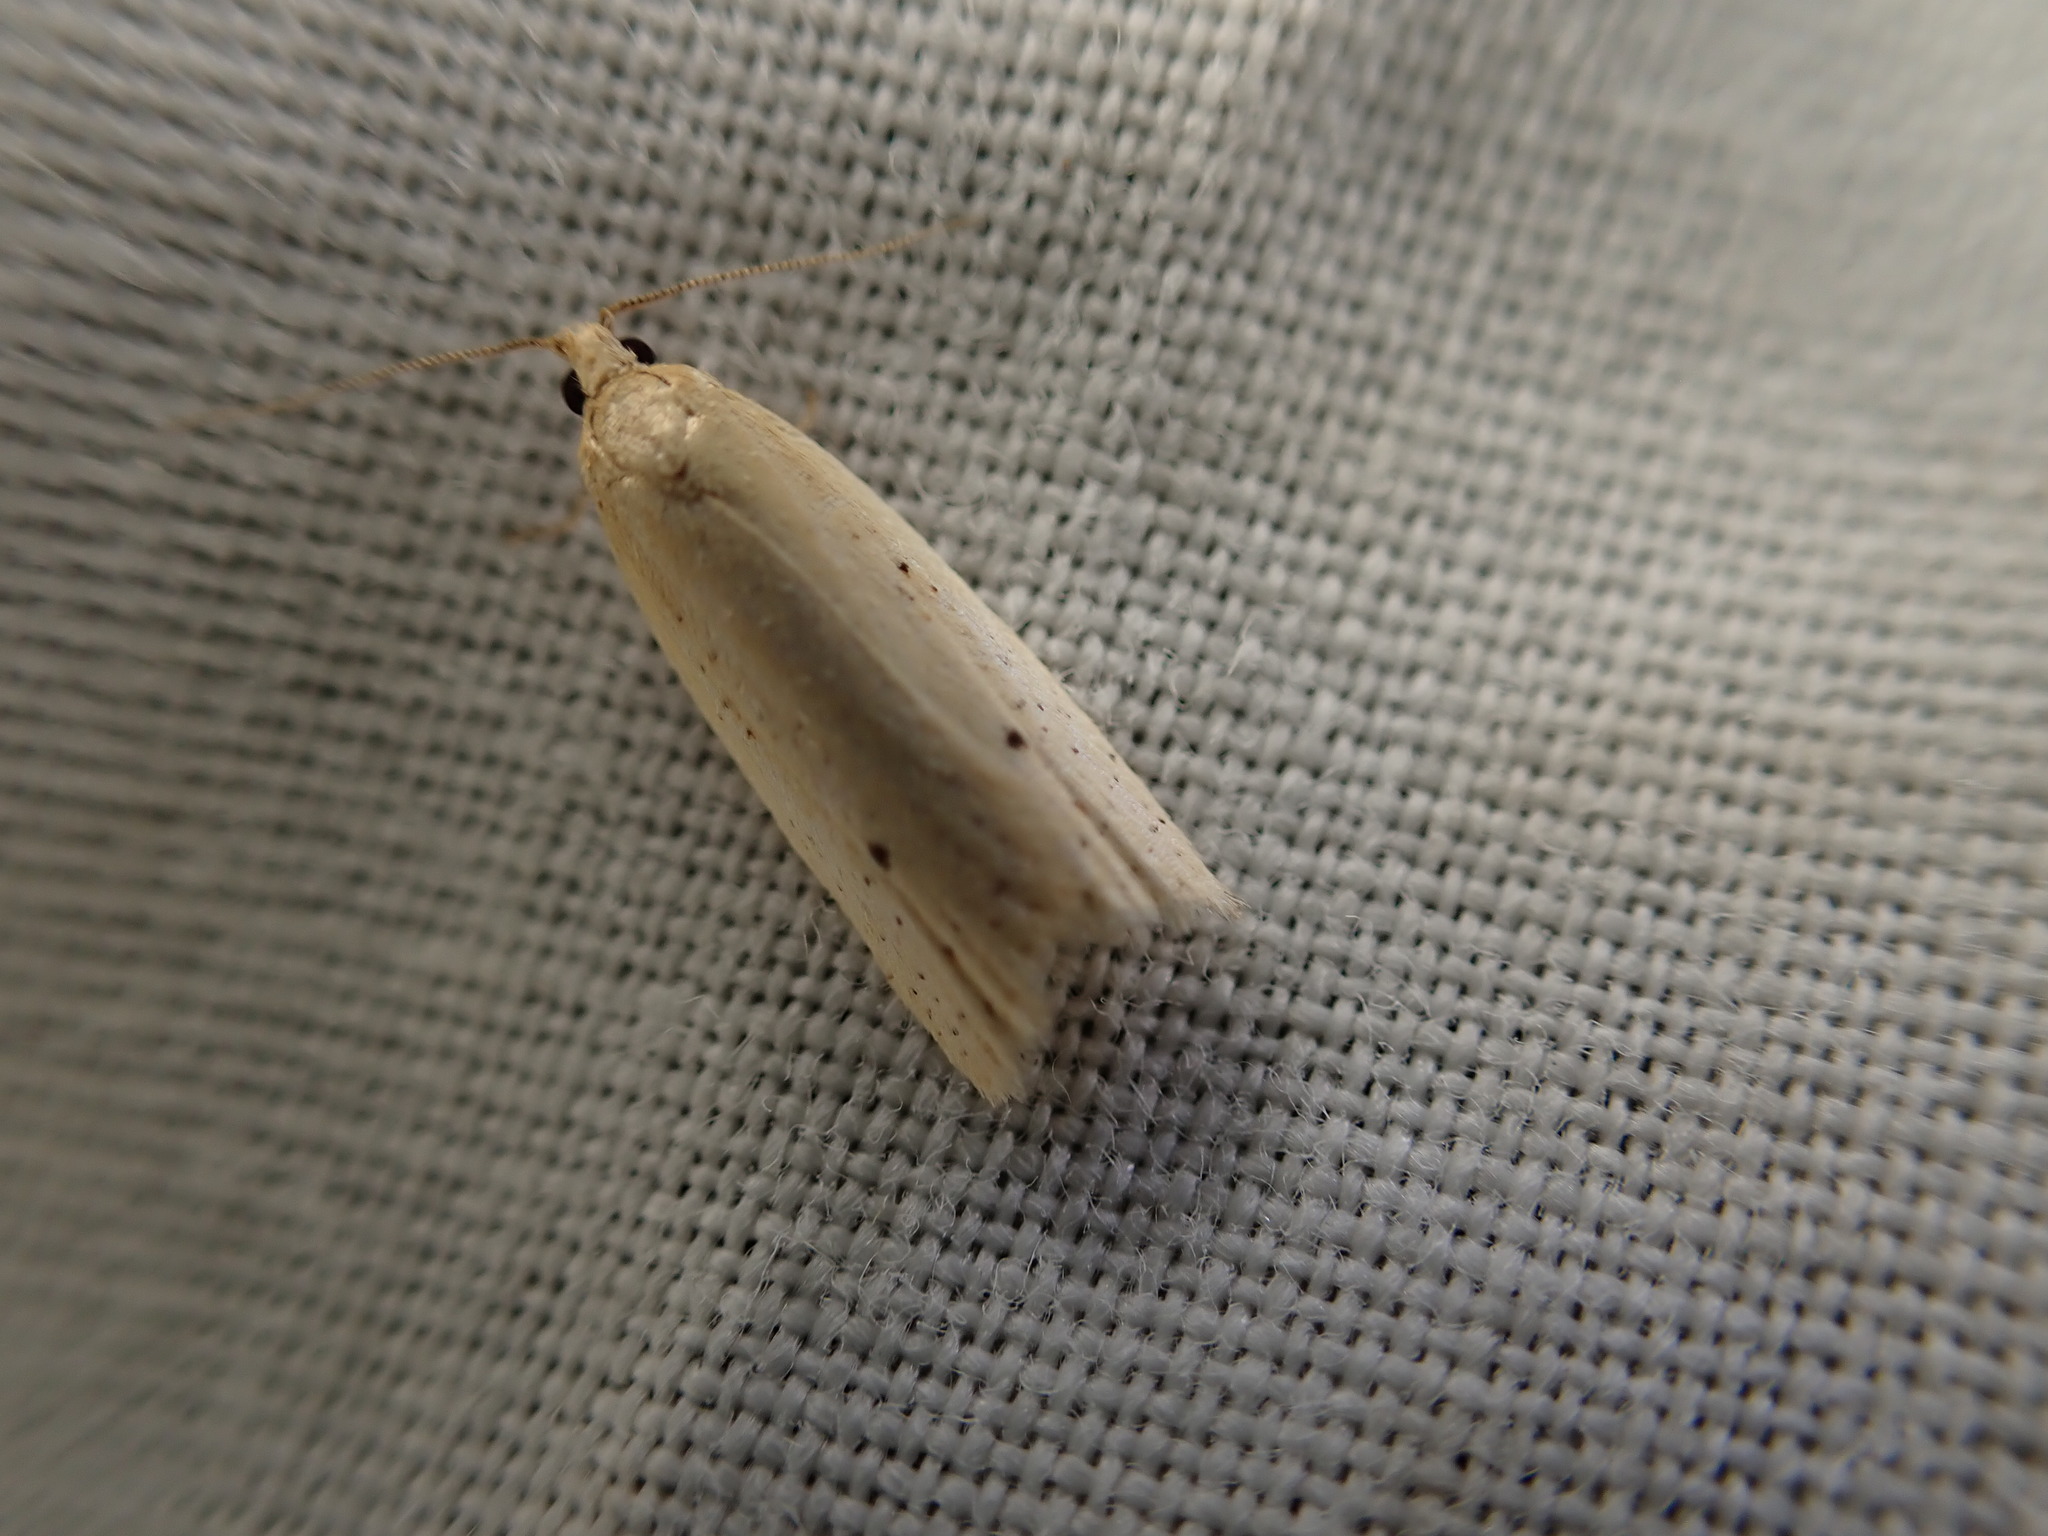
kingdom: Animalia
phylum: Arthropoda
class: Insecta
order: Lepidoptera
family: Tortricidae
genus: Clepsis
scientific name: Clepsis
